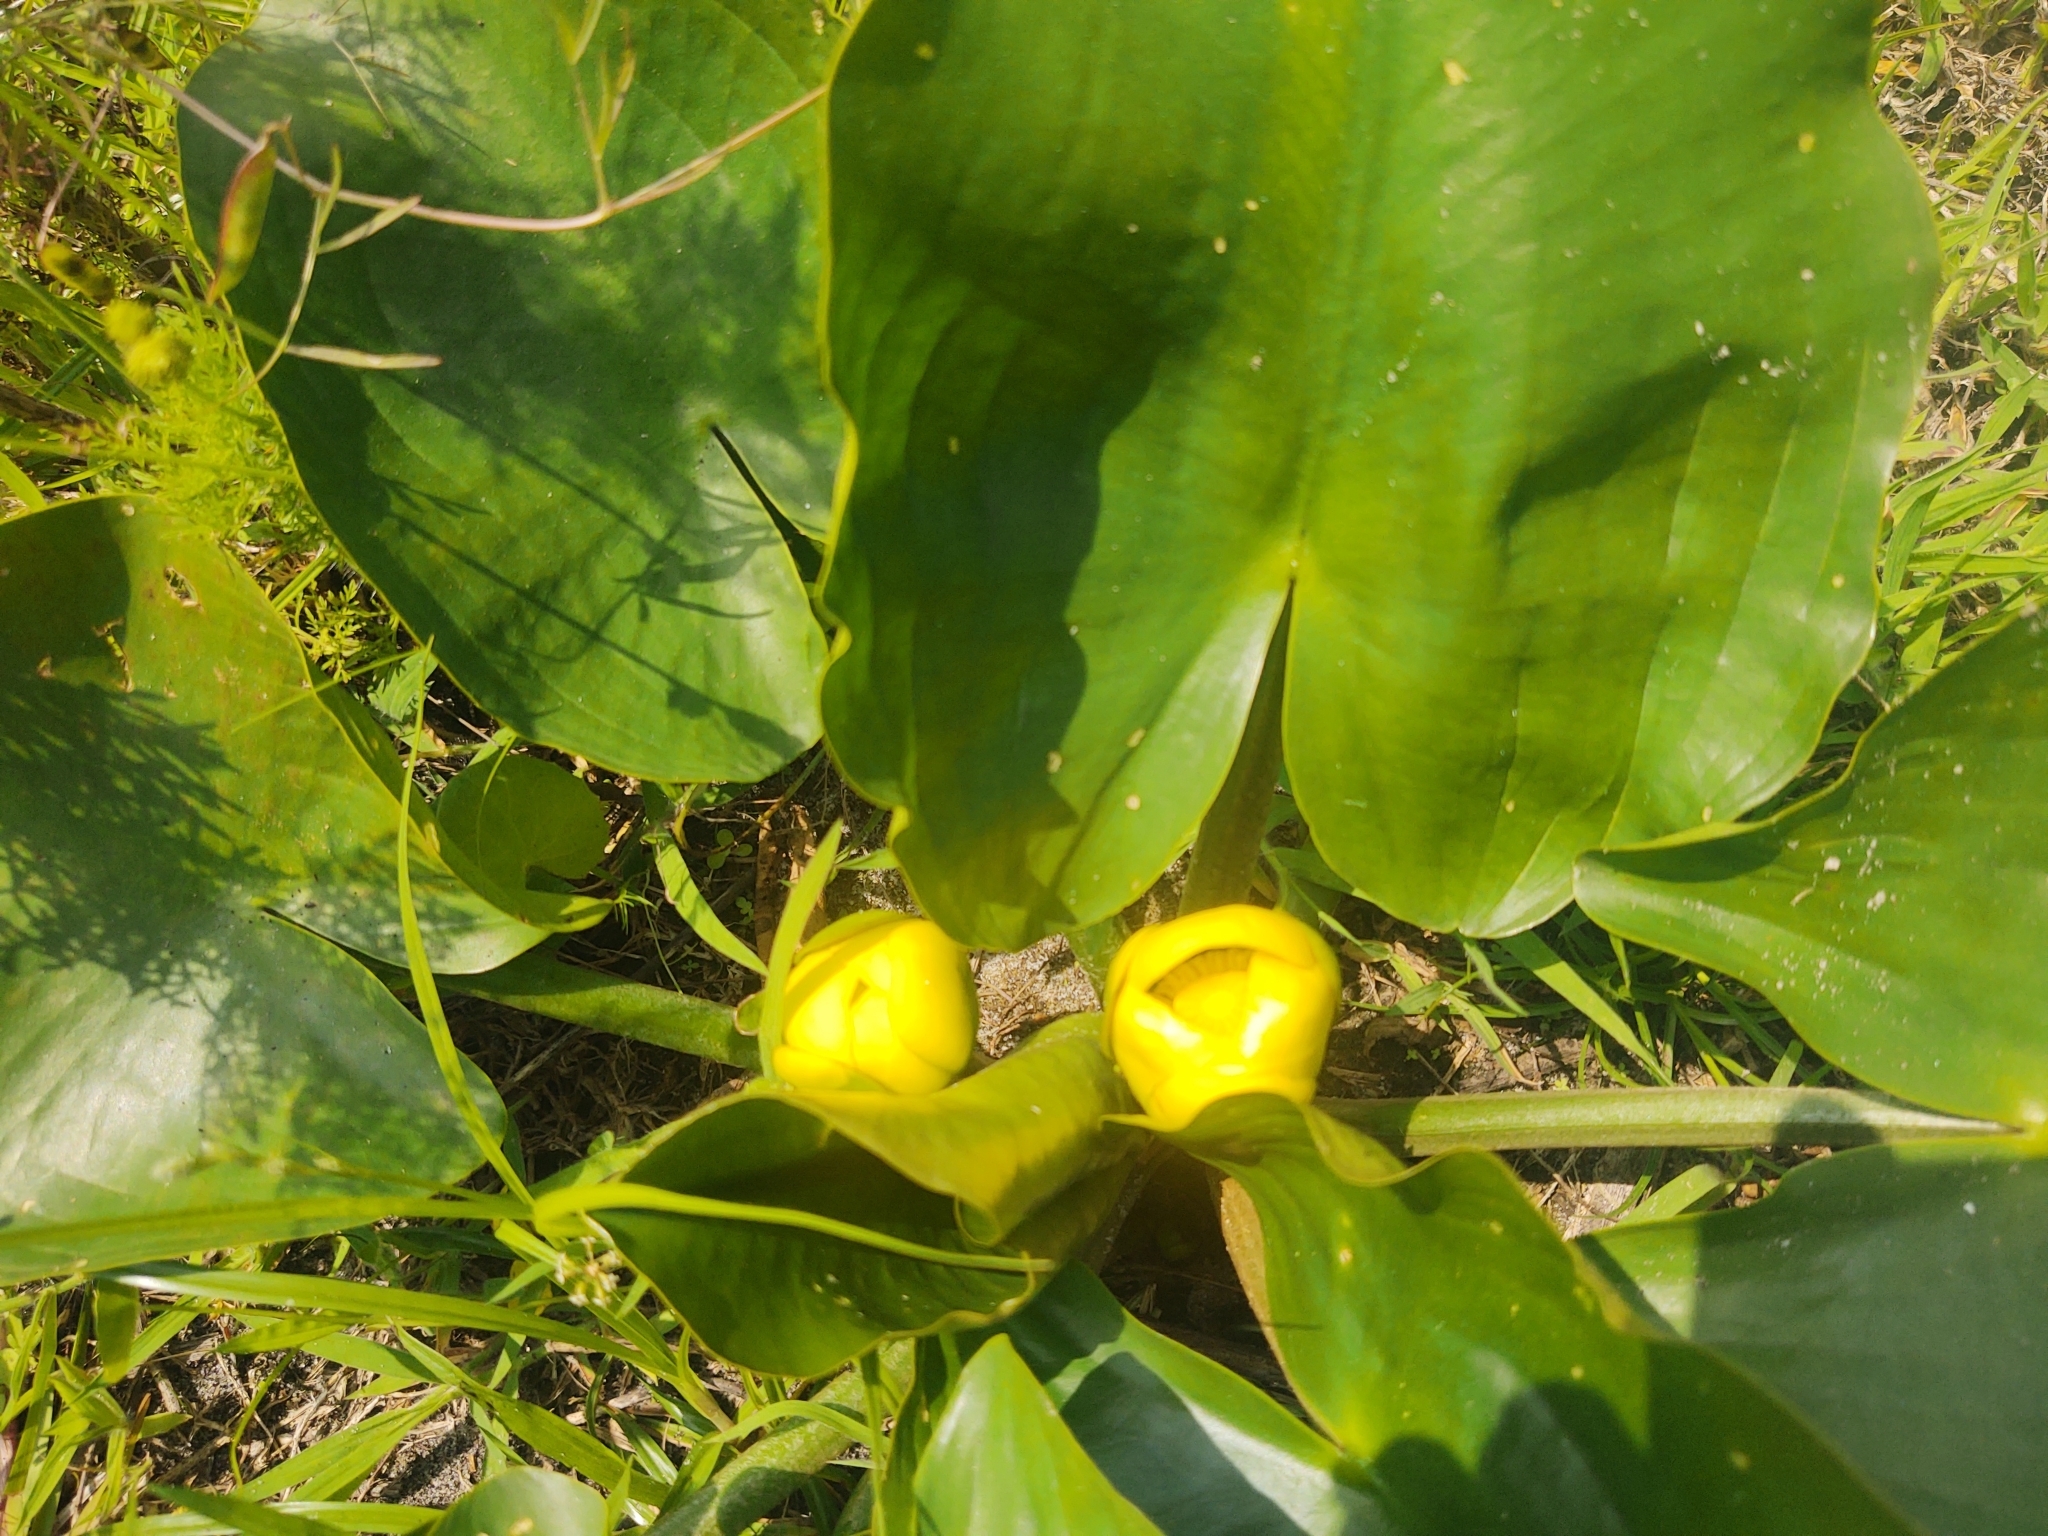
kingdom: Plantae
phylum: Tracheophyta
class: Magnoliopsida
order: Nymphaeales
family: Nymphaeaceae
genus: Nuphar
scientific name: Nuphar advena
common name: Spatter-dock
